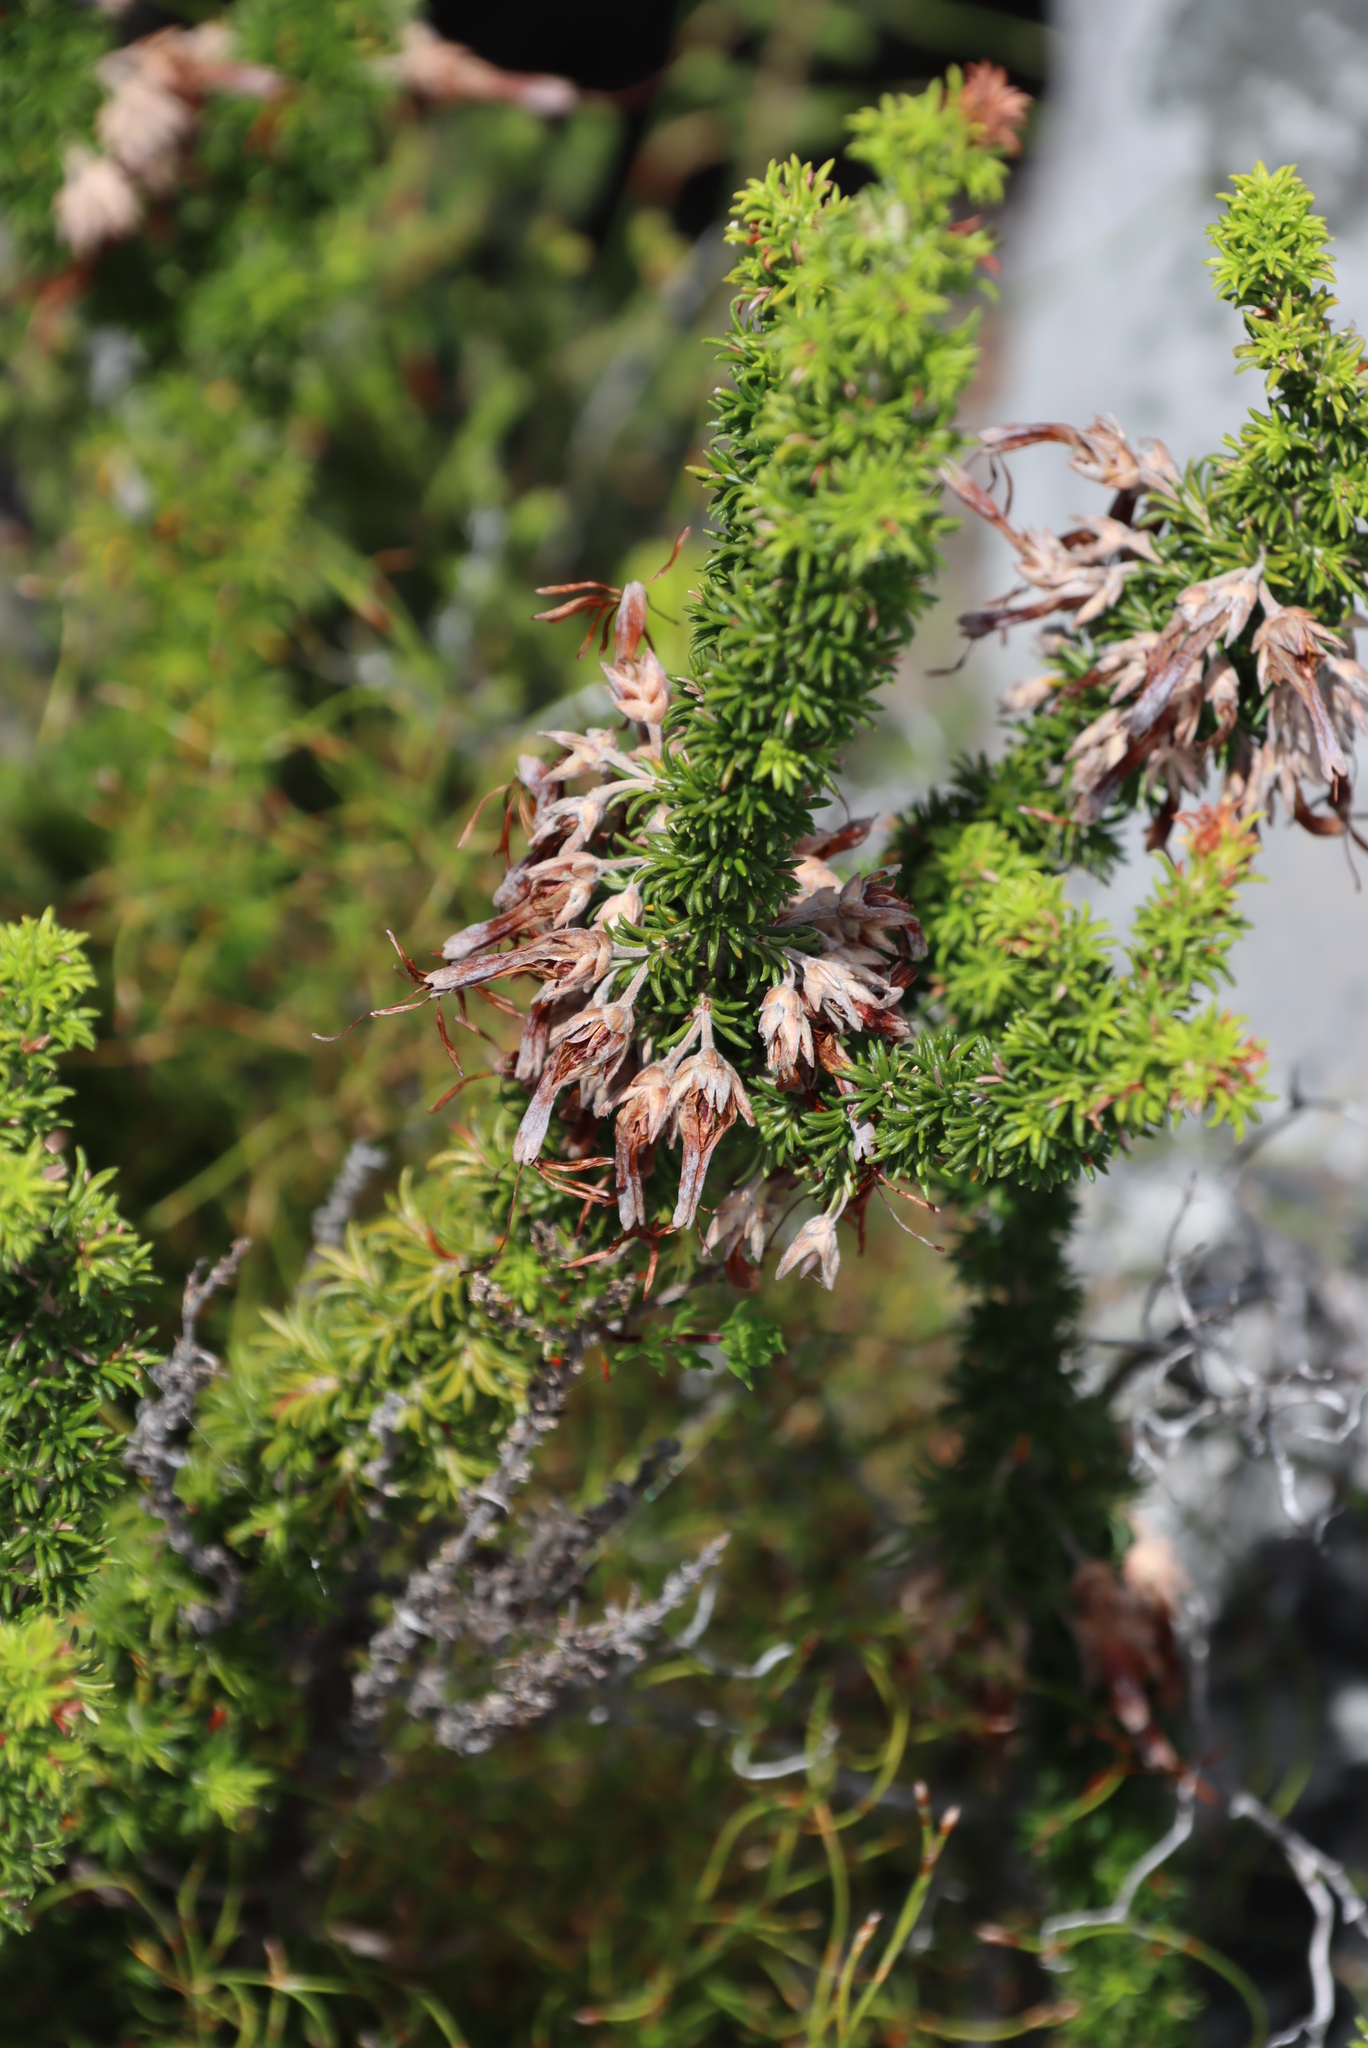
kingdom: Plantae
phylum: Tracheophyta
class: Magnoliopsida
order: Ericales
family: Ericaceae
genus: Erica
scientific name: Erica coccinea
